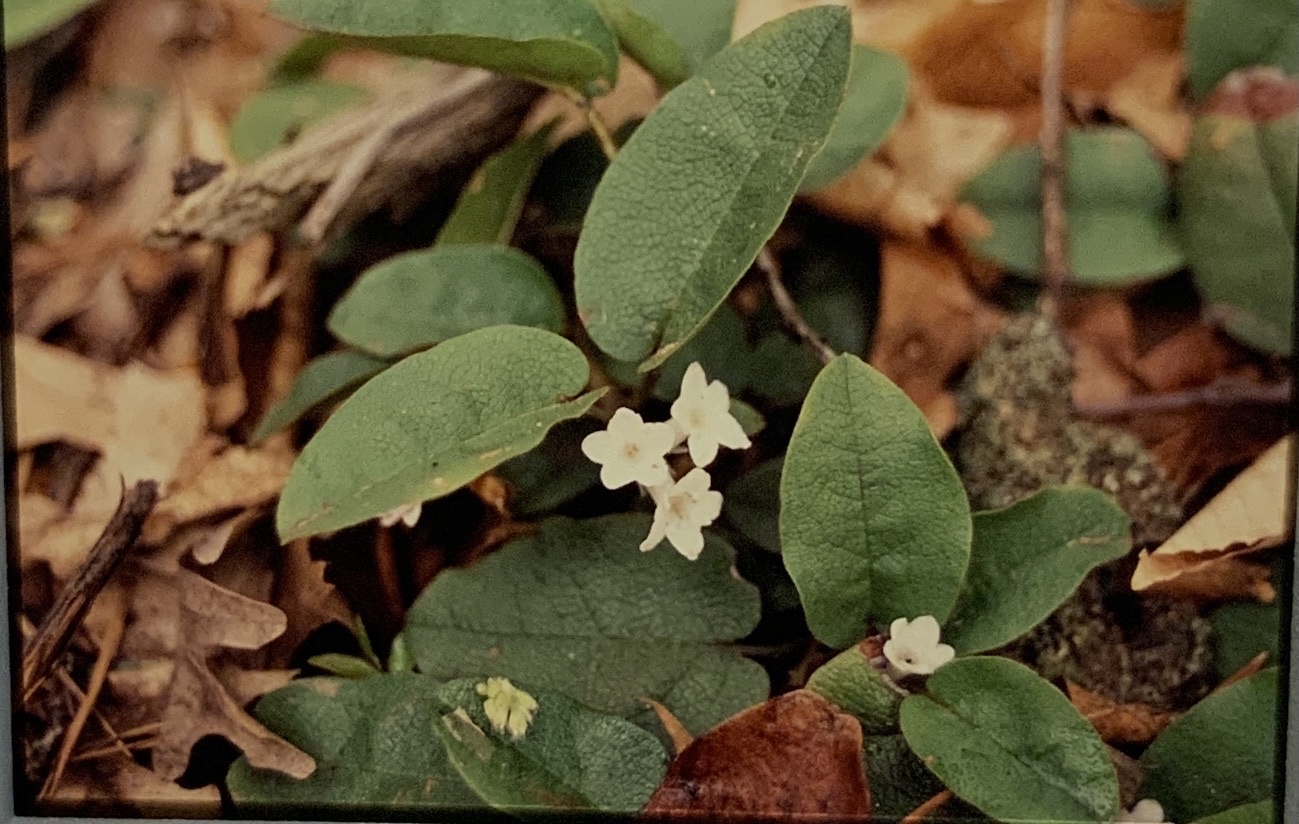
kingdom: Plantae
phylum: Tracheophyta
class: Magnoliopsida
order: Ericales
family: Ericaceae
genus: Epigaea
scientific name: Epigaea repens
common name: Gravelroot
